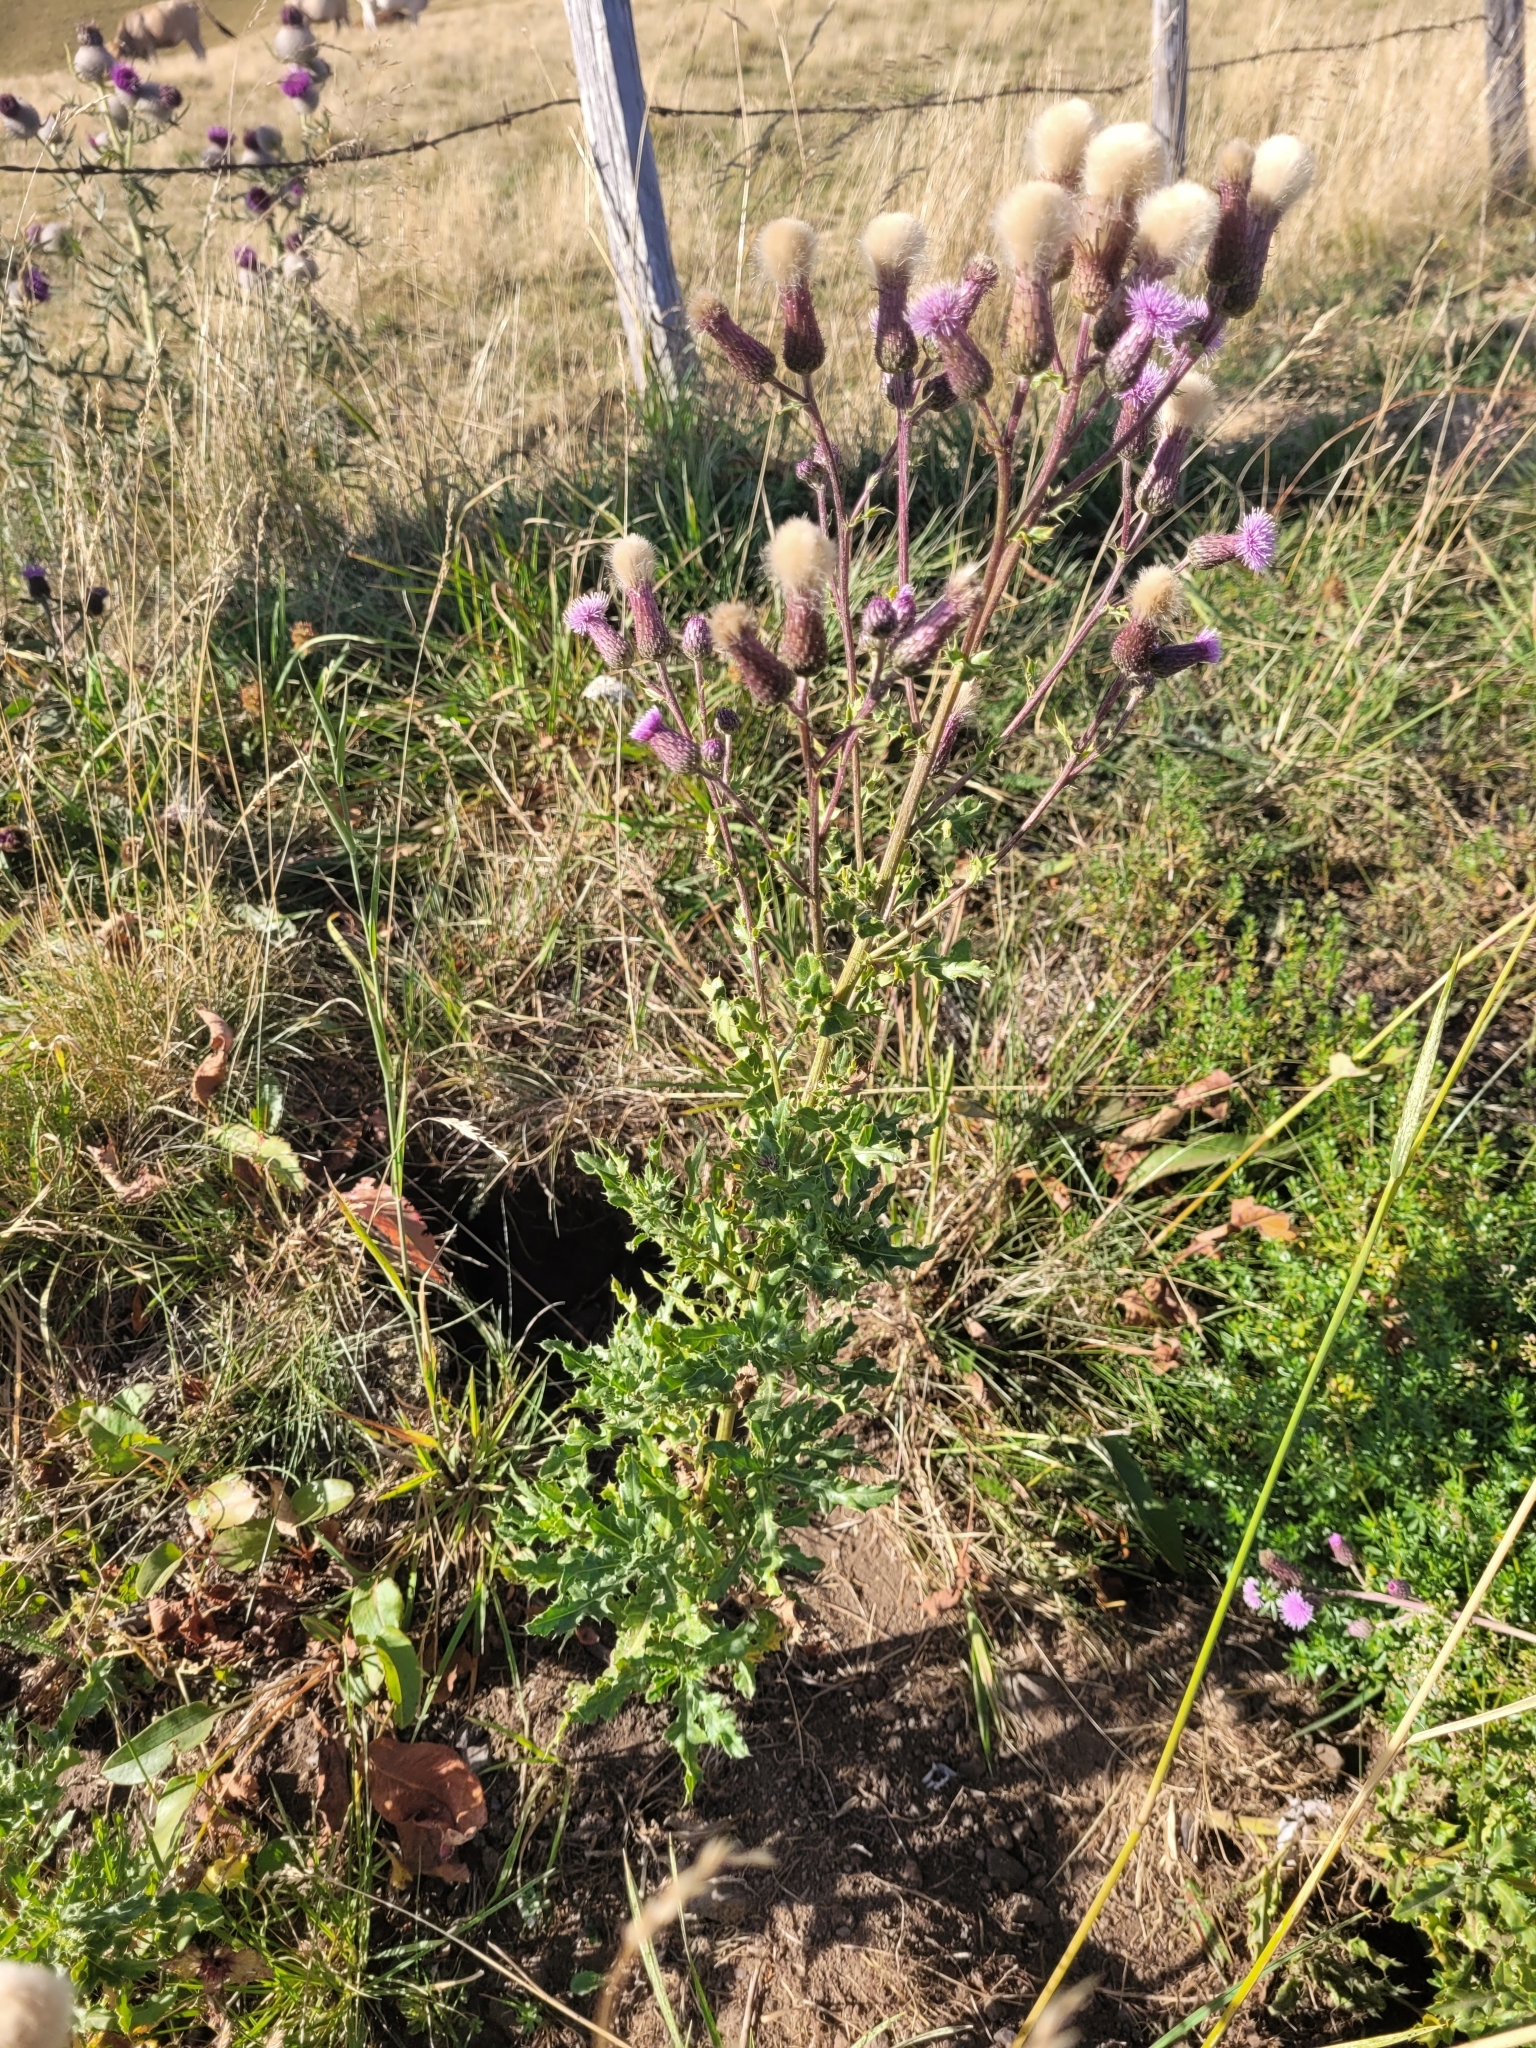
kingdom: Plantae
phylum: Tracheophyta
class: Magnoliopsida
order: Asterales
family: Asteraceae
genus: Cirsium
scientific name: Cirsium arvense
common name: Creeping thistle
